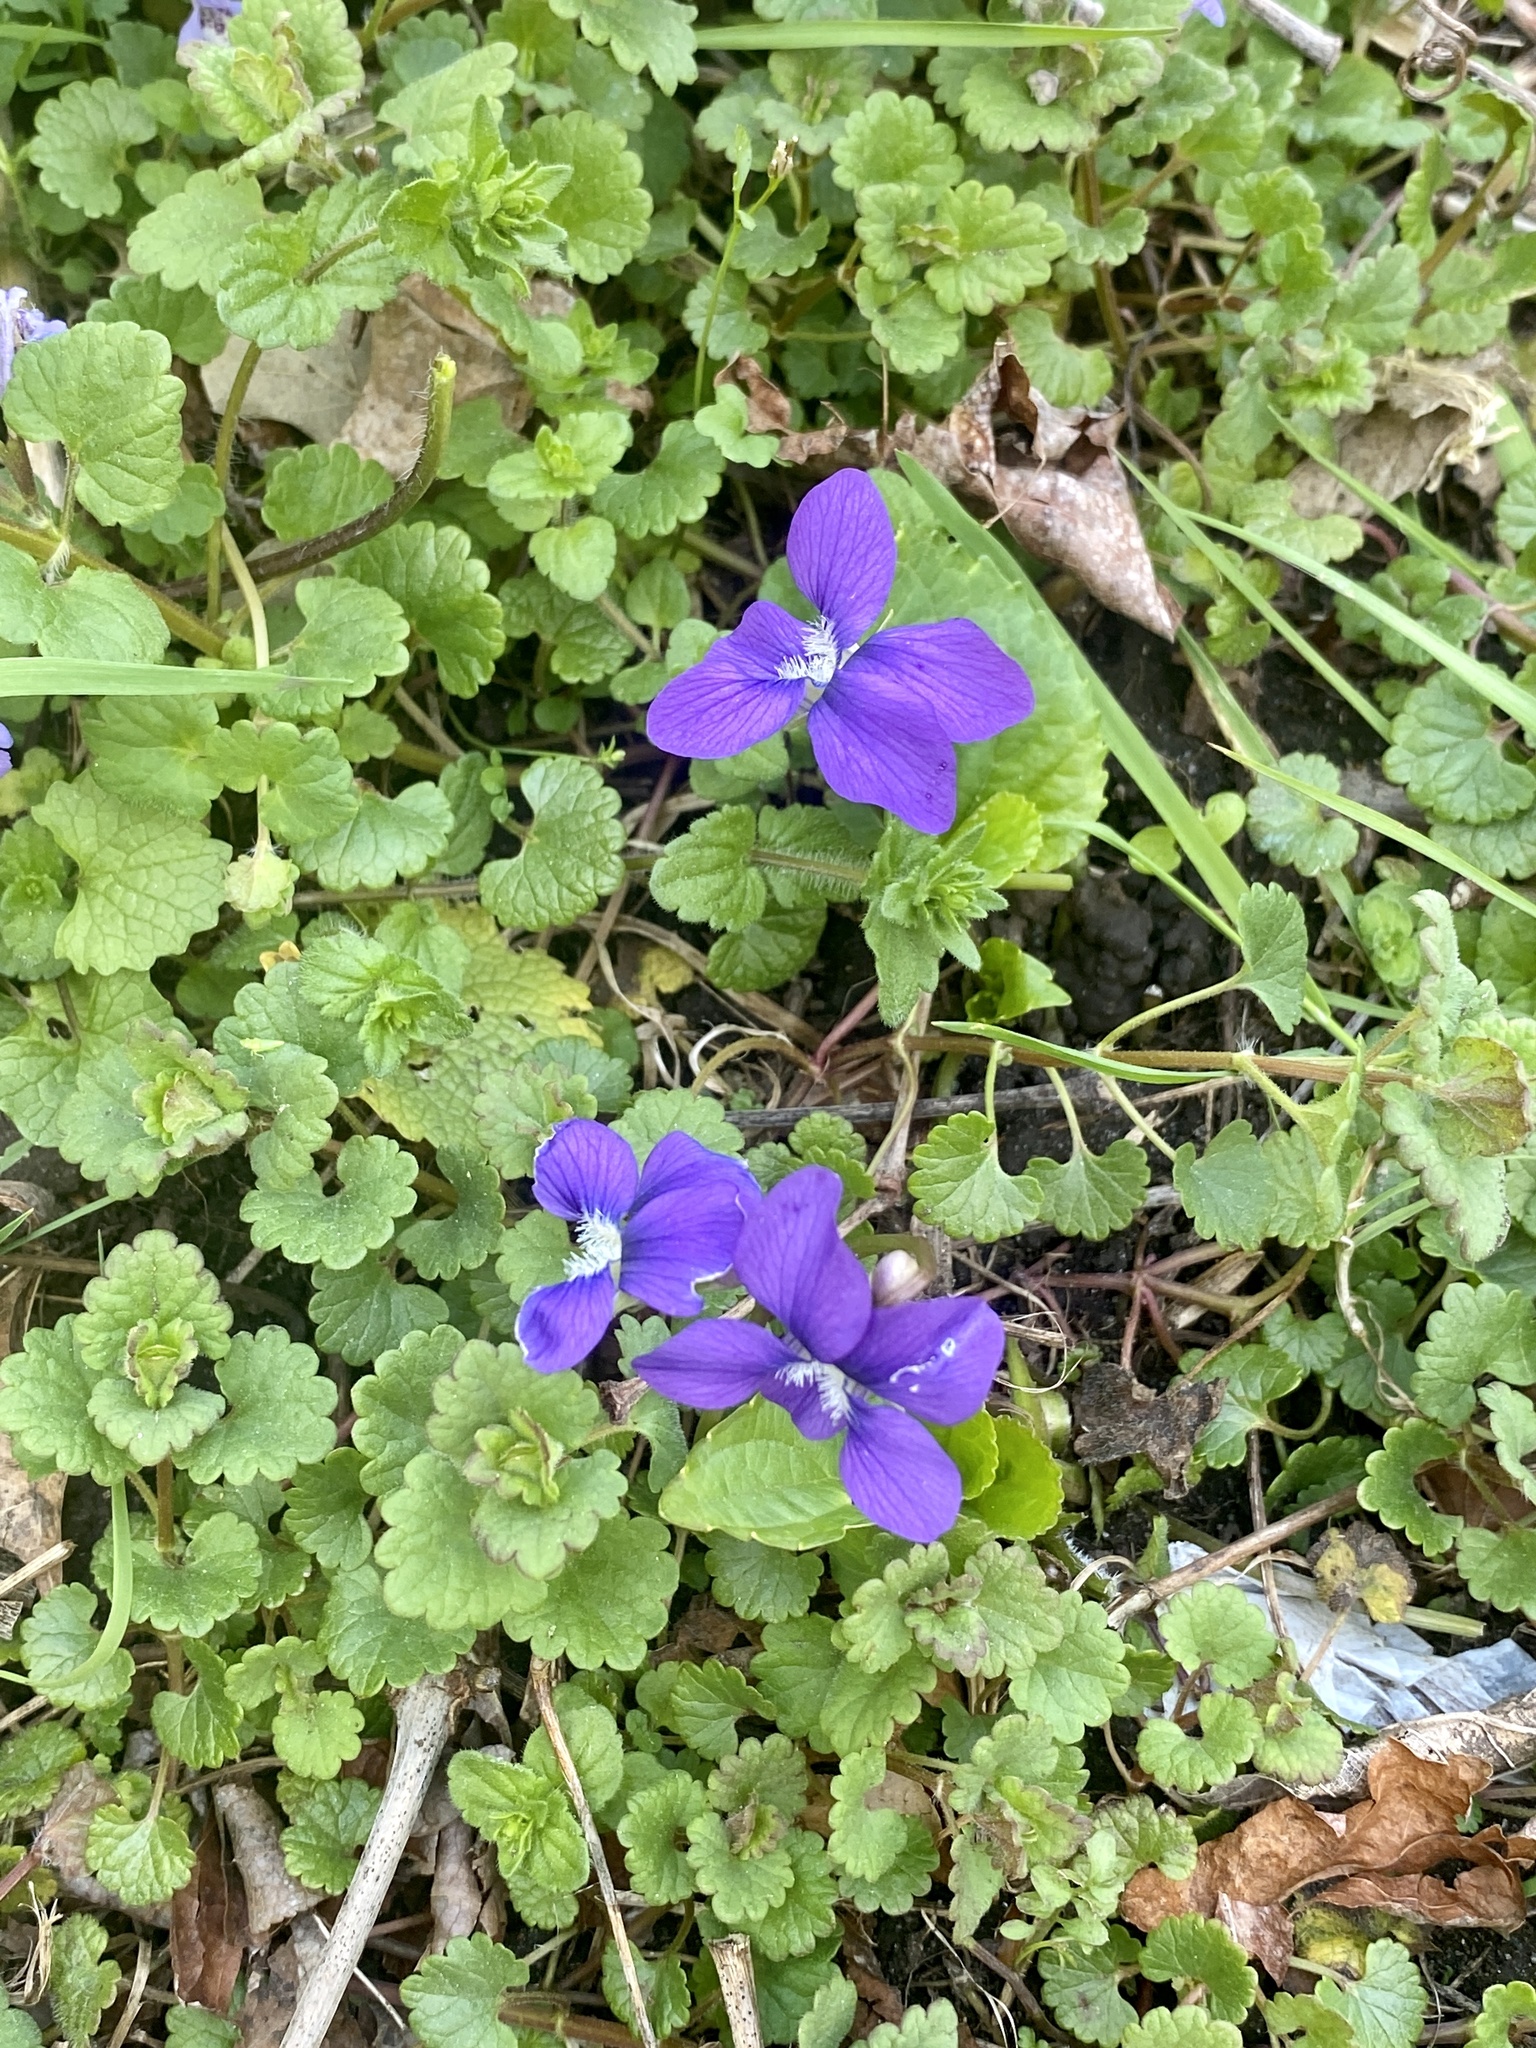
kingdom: Plantae
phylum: Tracheophyta
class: Magnoliopsida
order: Malpighiales
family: Violaceae
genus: Viola
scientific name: Viola sororia
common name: Dooryard violet
